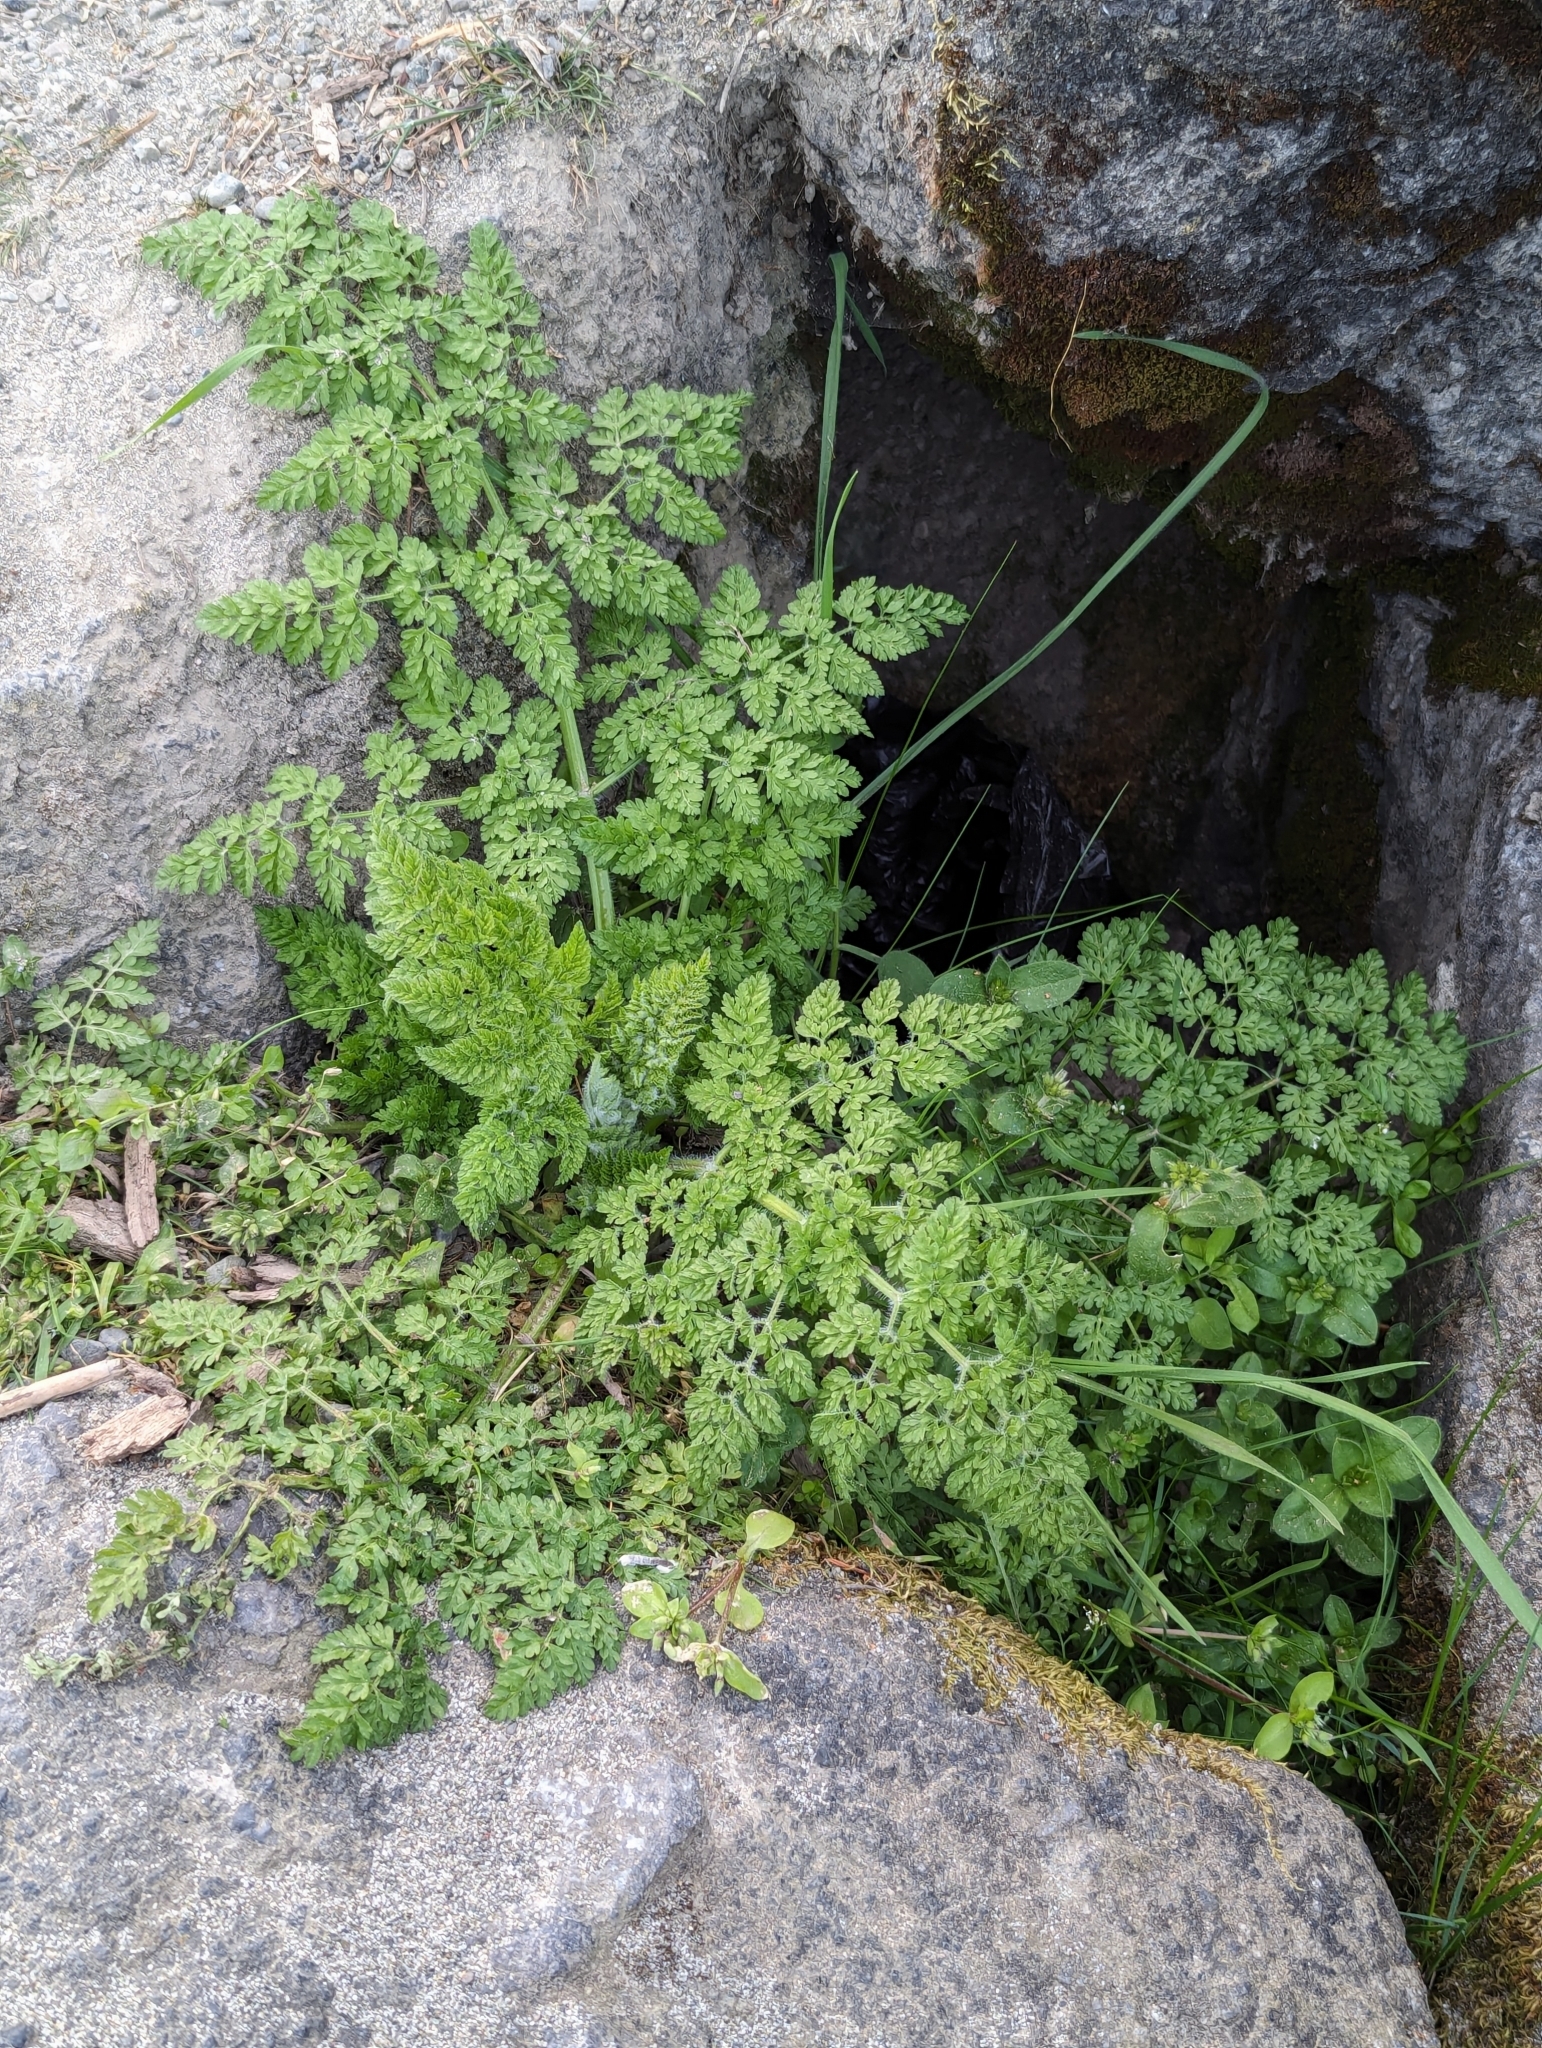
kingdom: Plantae
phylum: Tracheophyta
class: Magnoliopsida
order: Apiales
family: Apiaceae
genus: Anthriscus
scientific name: Anthriscus caucalis
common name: Bur chervil
